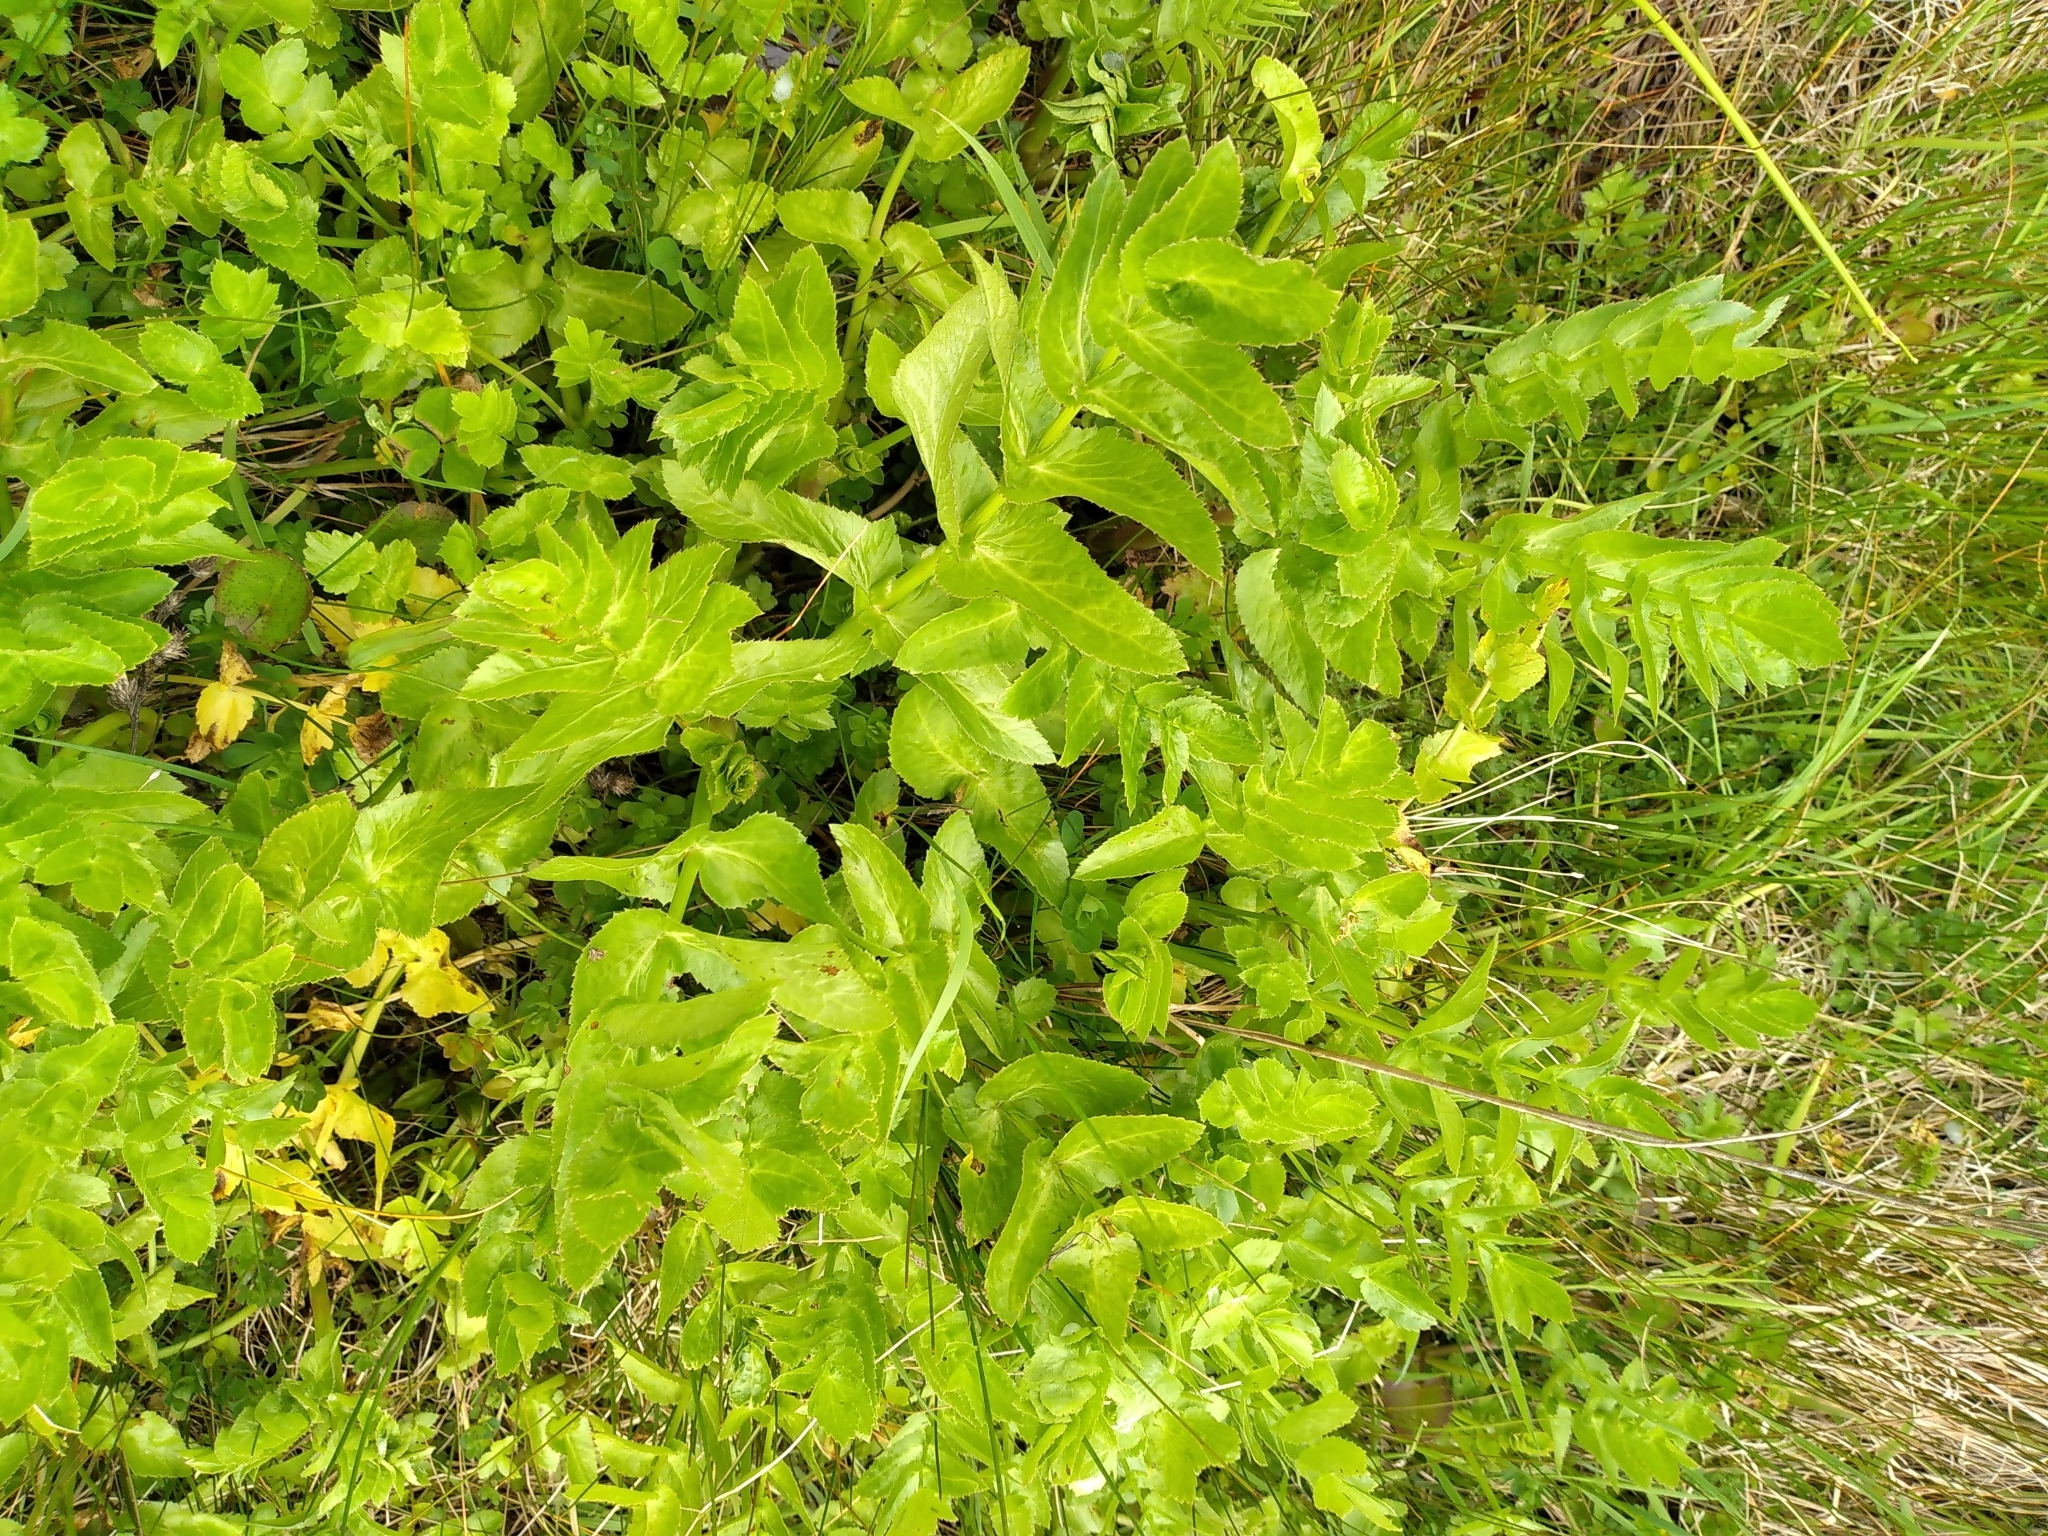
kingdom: Plantae
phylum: Tracheophyta
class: Magnoliopsida
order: Apiales
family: Apiaceae
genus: Helosciadium
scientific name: Helosciadium nodiflorum
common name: Fool's-watercress
